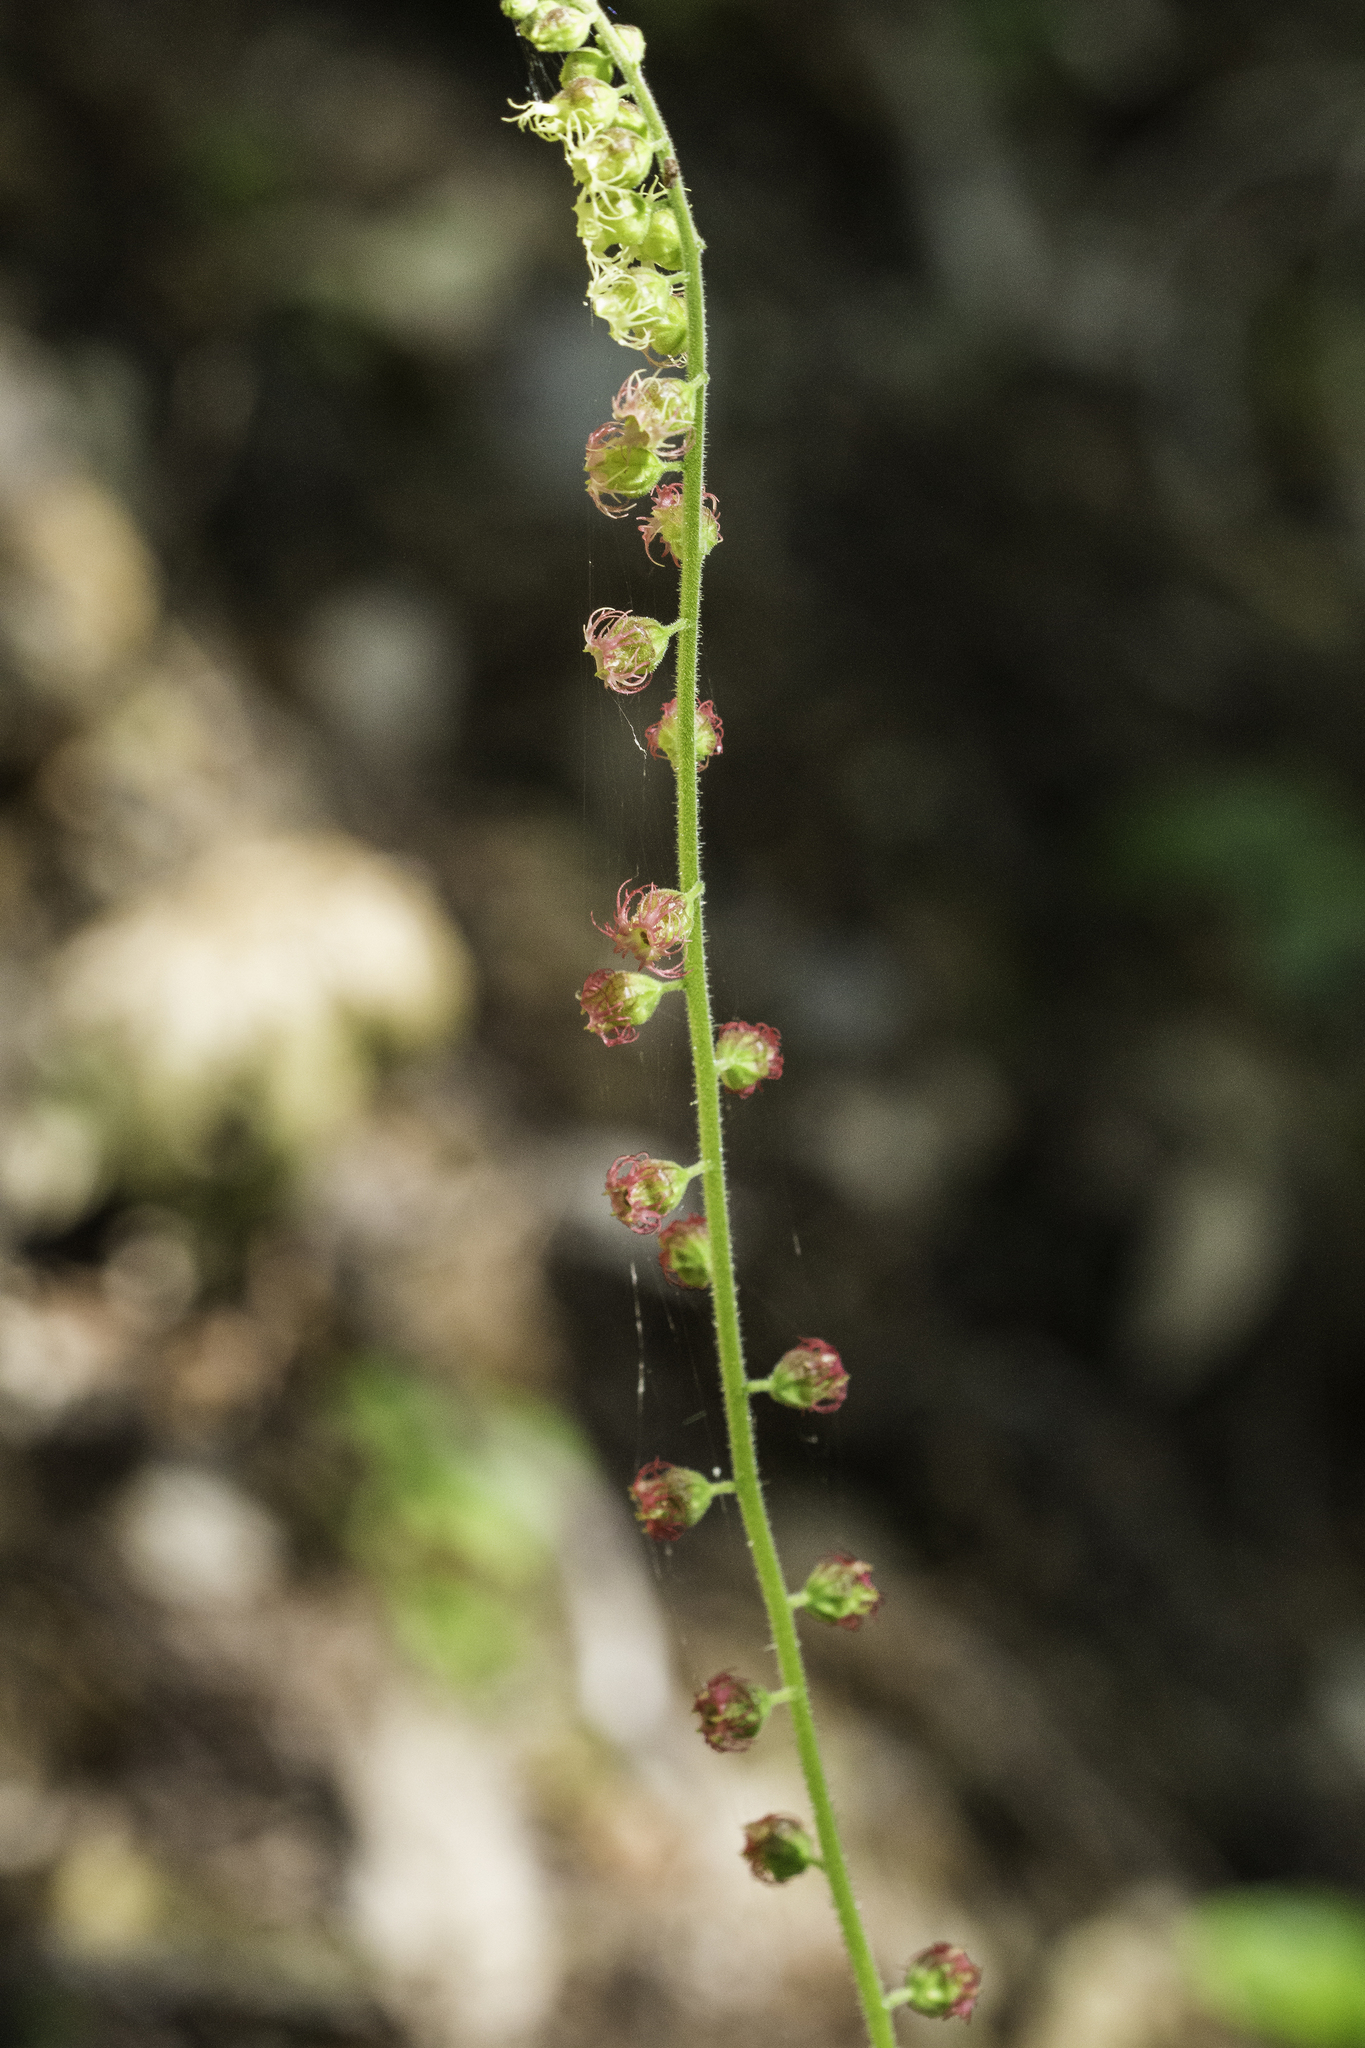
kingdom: Plantae
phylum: Tracheophyta
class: Magnoliopsida
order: Saxifragales
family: Saxifragaceae
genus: Tellima
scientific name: Tellima grandiflora
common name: Fringecups
